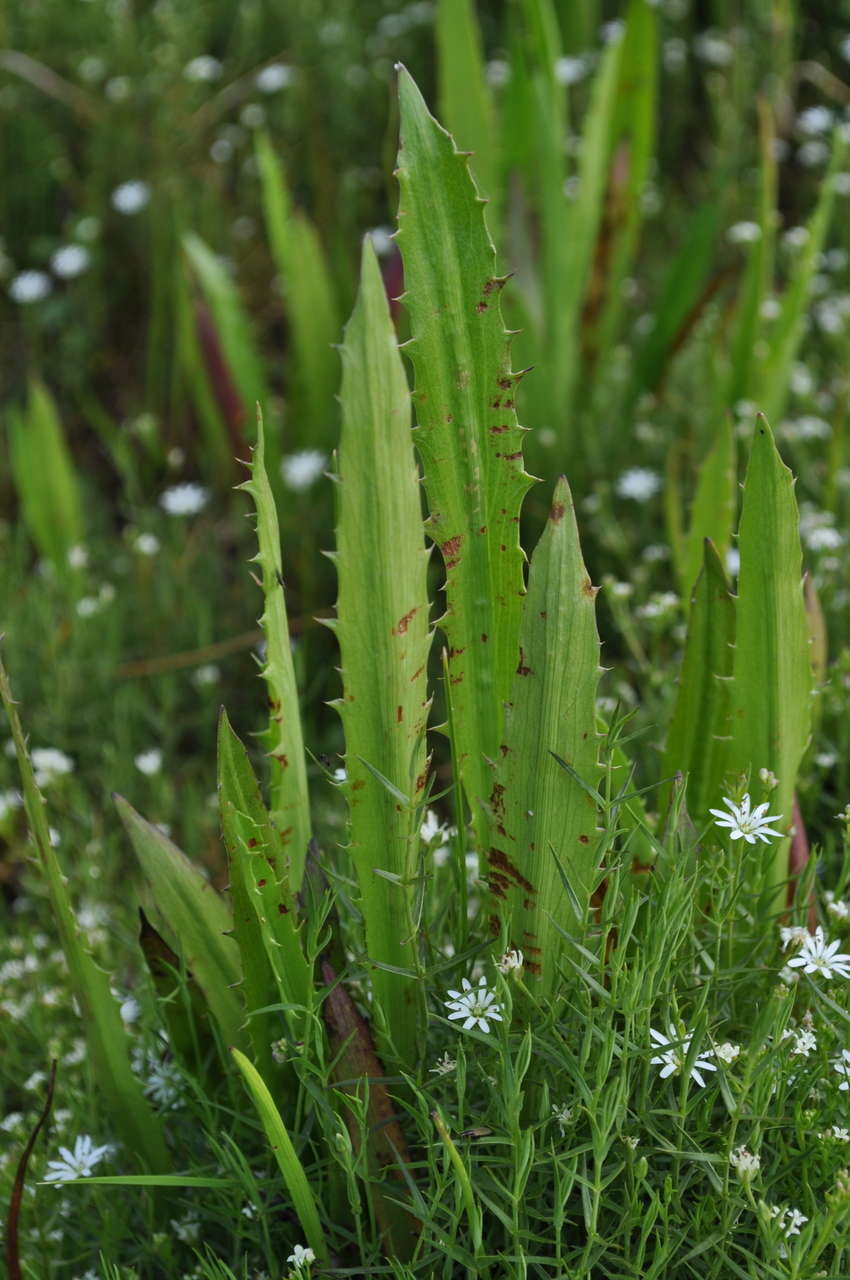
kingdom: Plantae
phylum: Tracheophyta
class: Magnoliopsida
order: Apiales
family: Apiaceae
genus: Eryngium
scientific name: Eryngium vesiculosum
